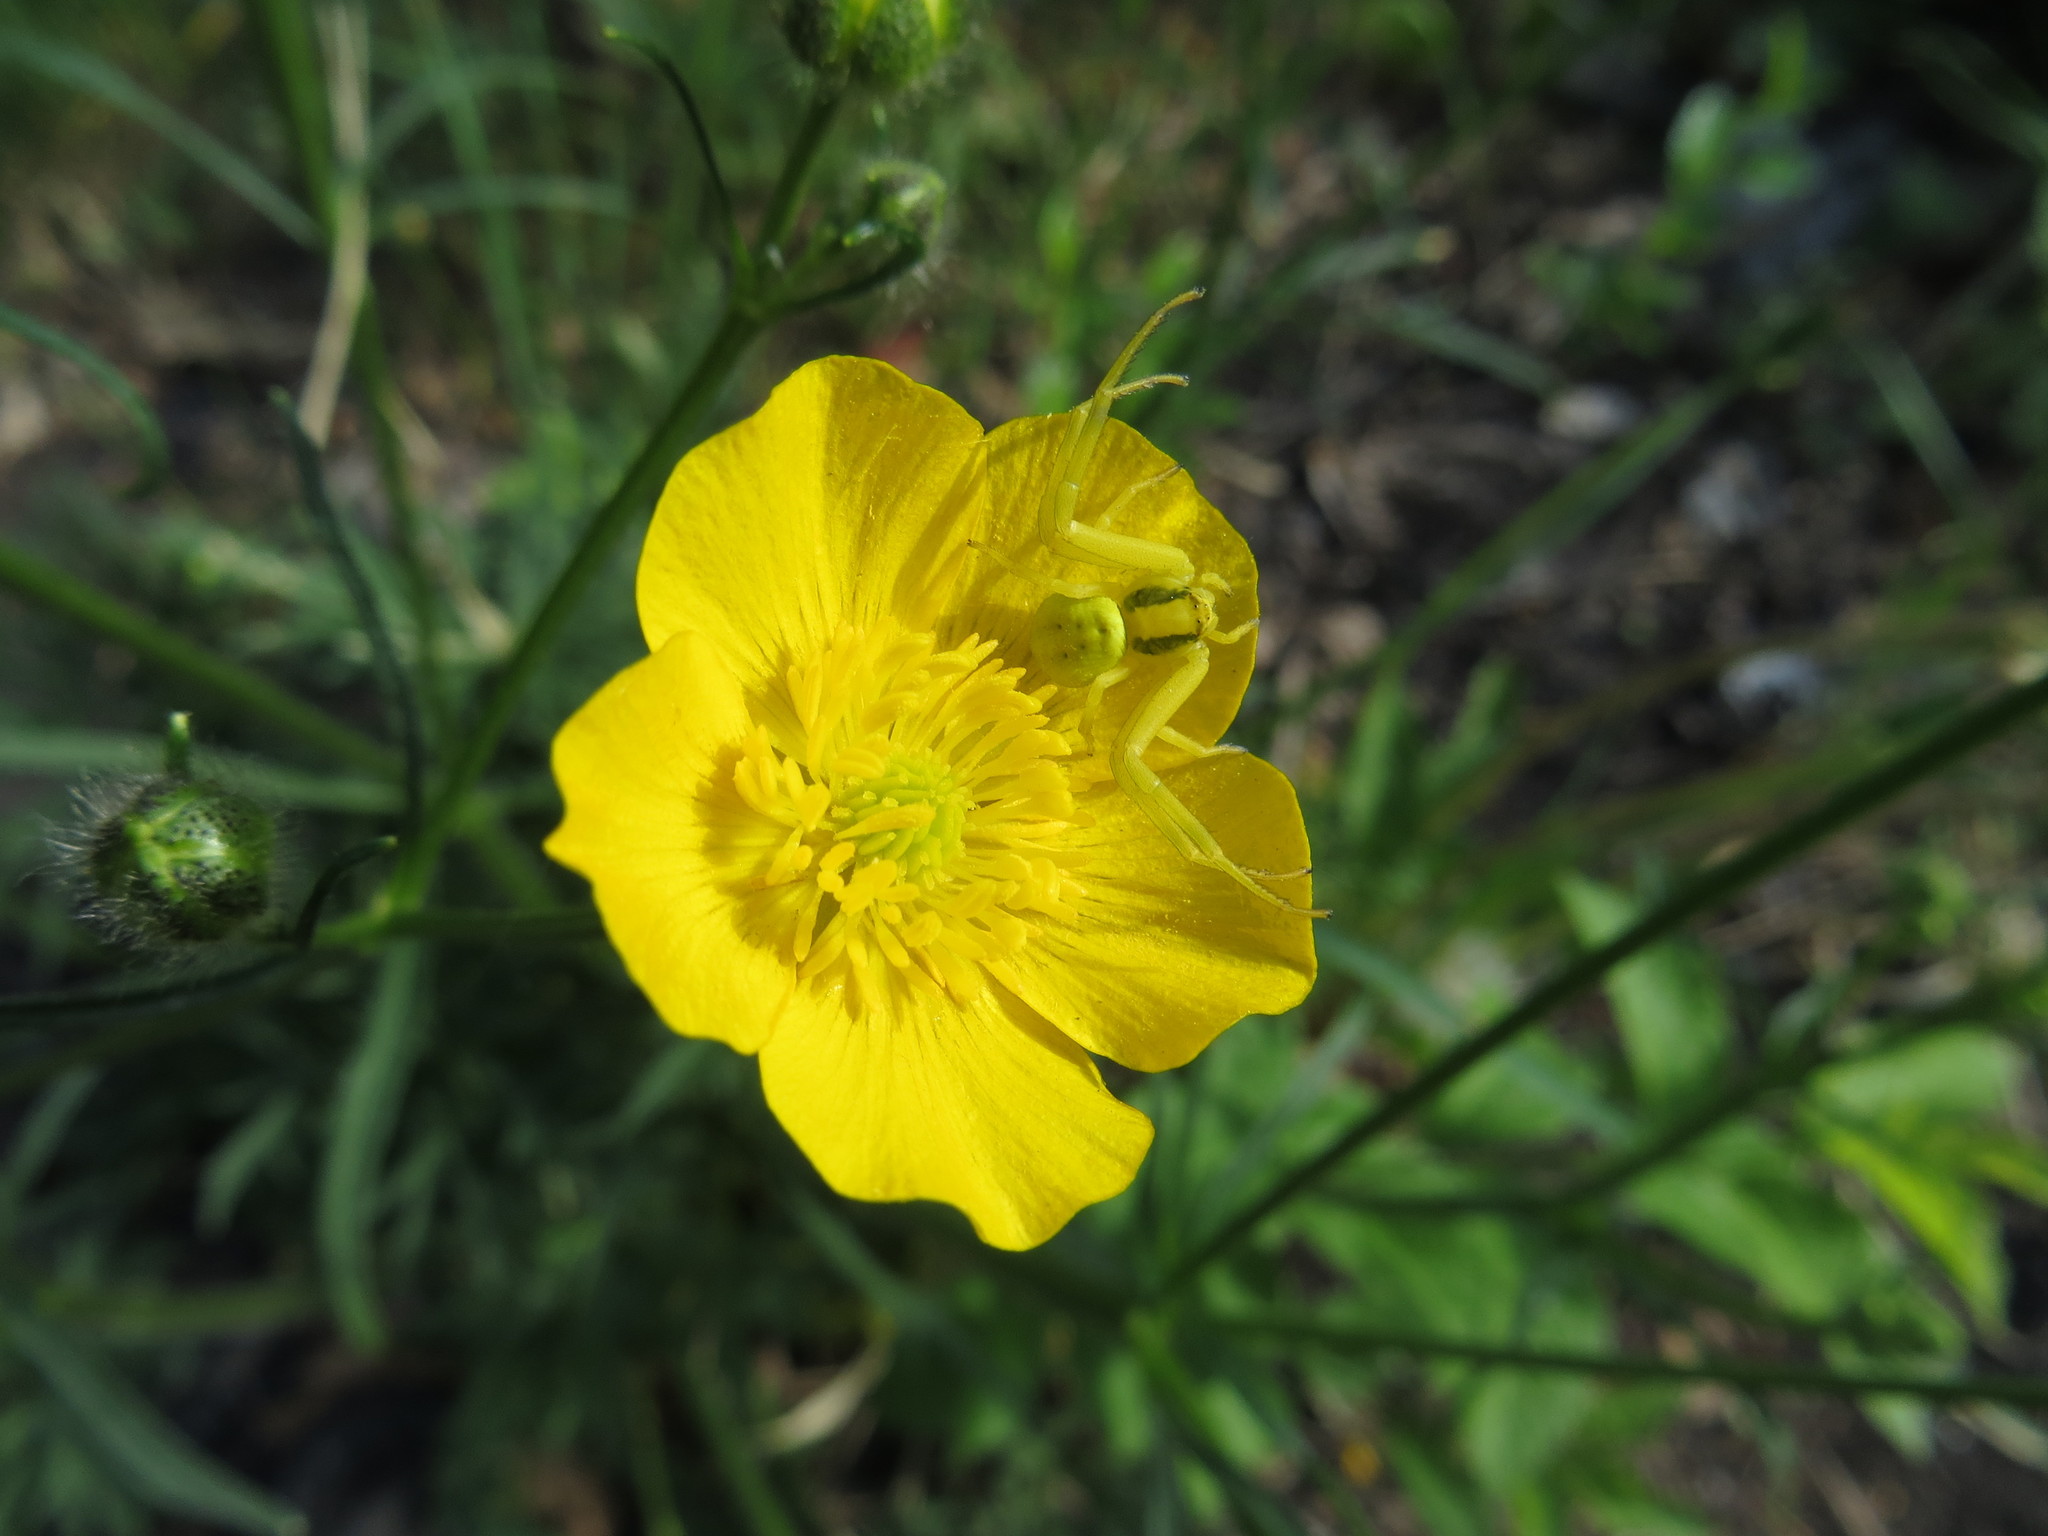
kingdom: Animalia
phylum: Arthropoda
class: Arachnida
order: Araneae
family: Thomisidae
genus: Misumena
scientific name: Misumena vatia
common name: Goldenrod crab spider
